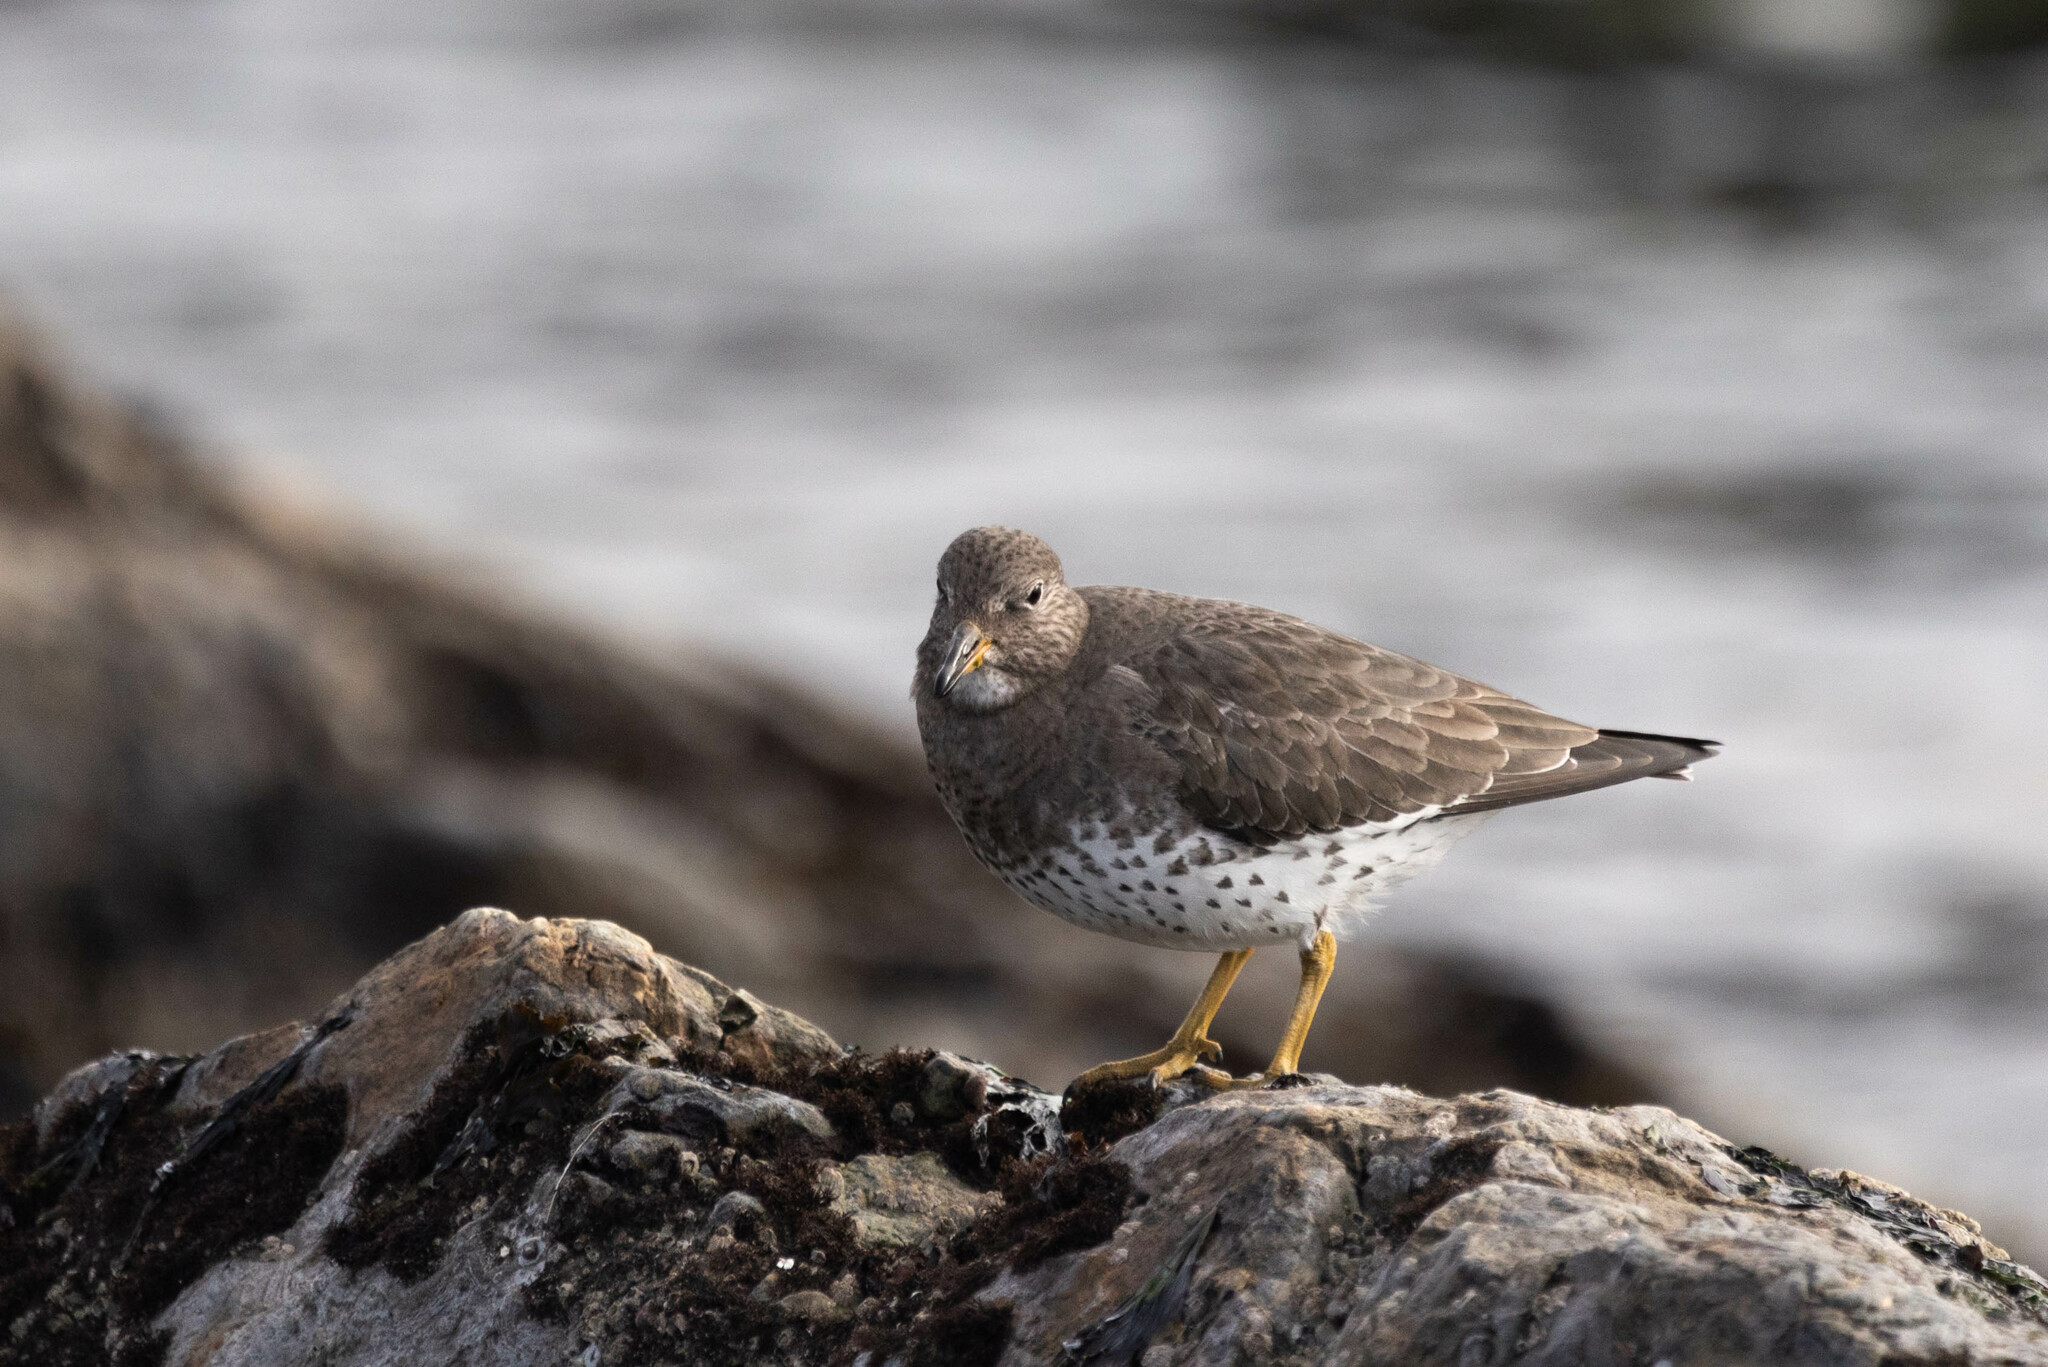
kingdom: Animalia
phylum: Chordata
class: Aves
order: Charadriiformes
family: Scolopacidae
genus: Calidris
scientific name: Calidris virgata
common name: Surfbird
